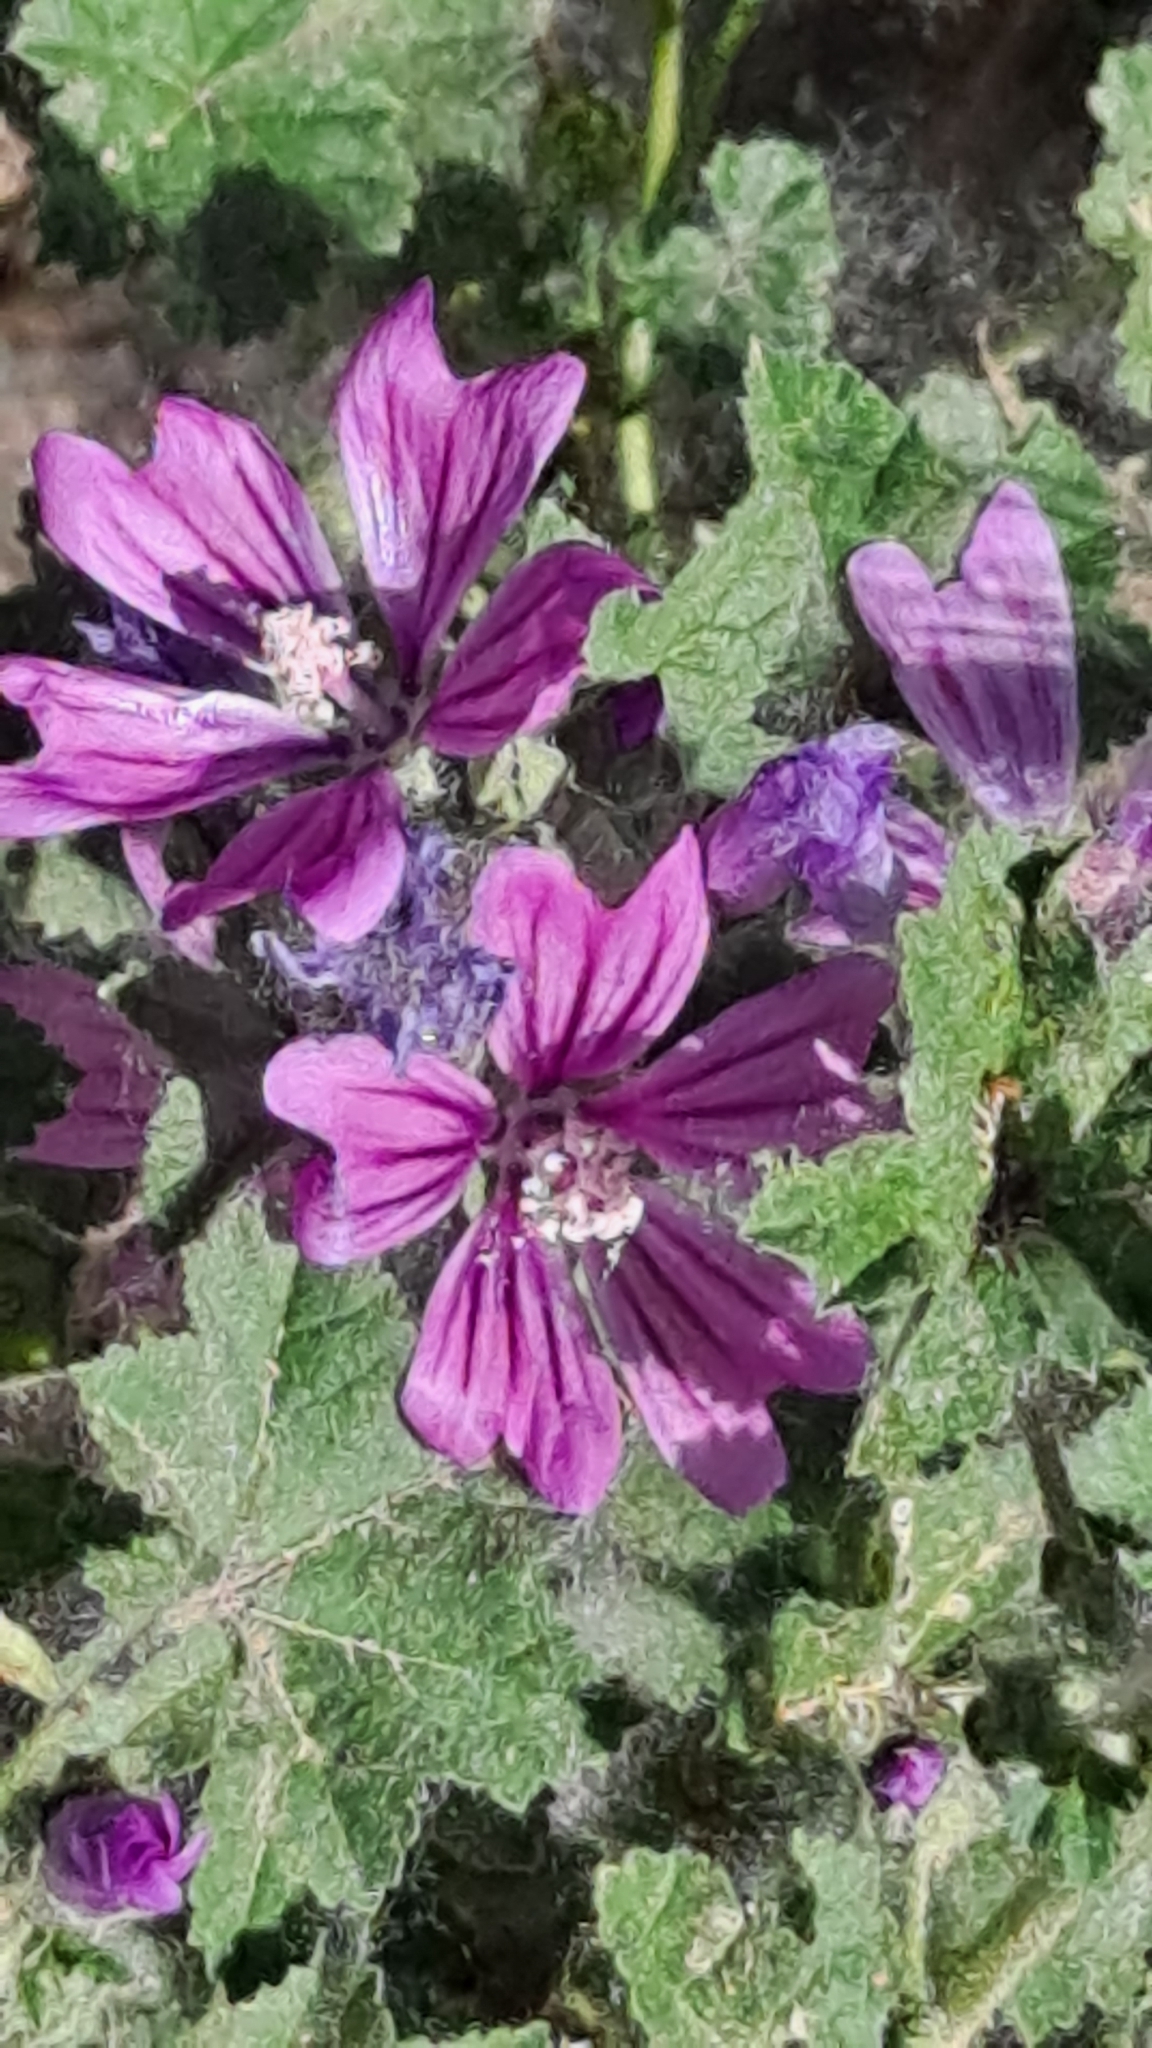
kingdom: Plantae
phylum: Tracheophyta
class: Magnoliopsida
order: Malvales
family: Malvaceae
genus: Malva
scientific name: Malva sylvestris
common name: Common mallow
